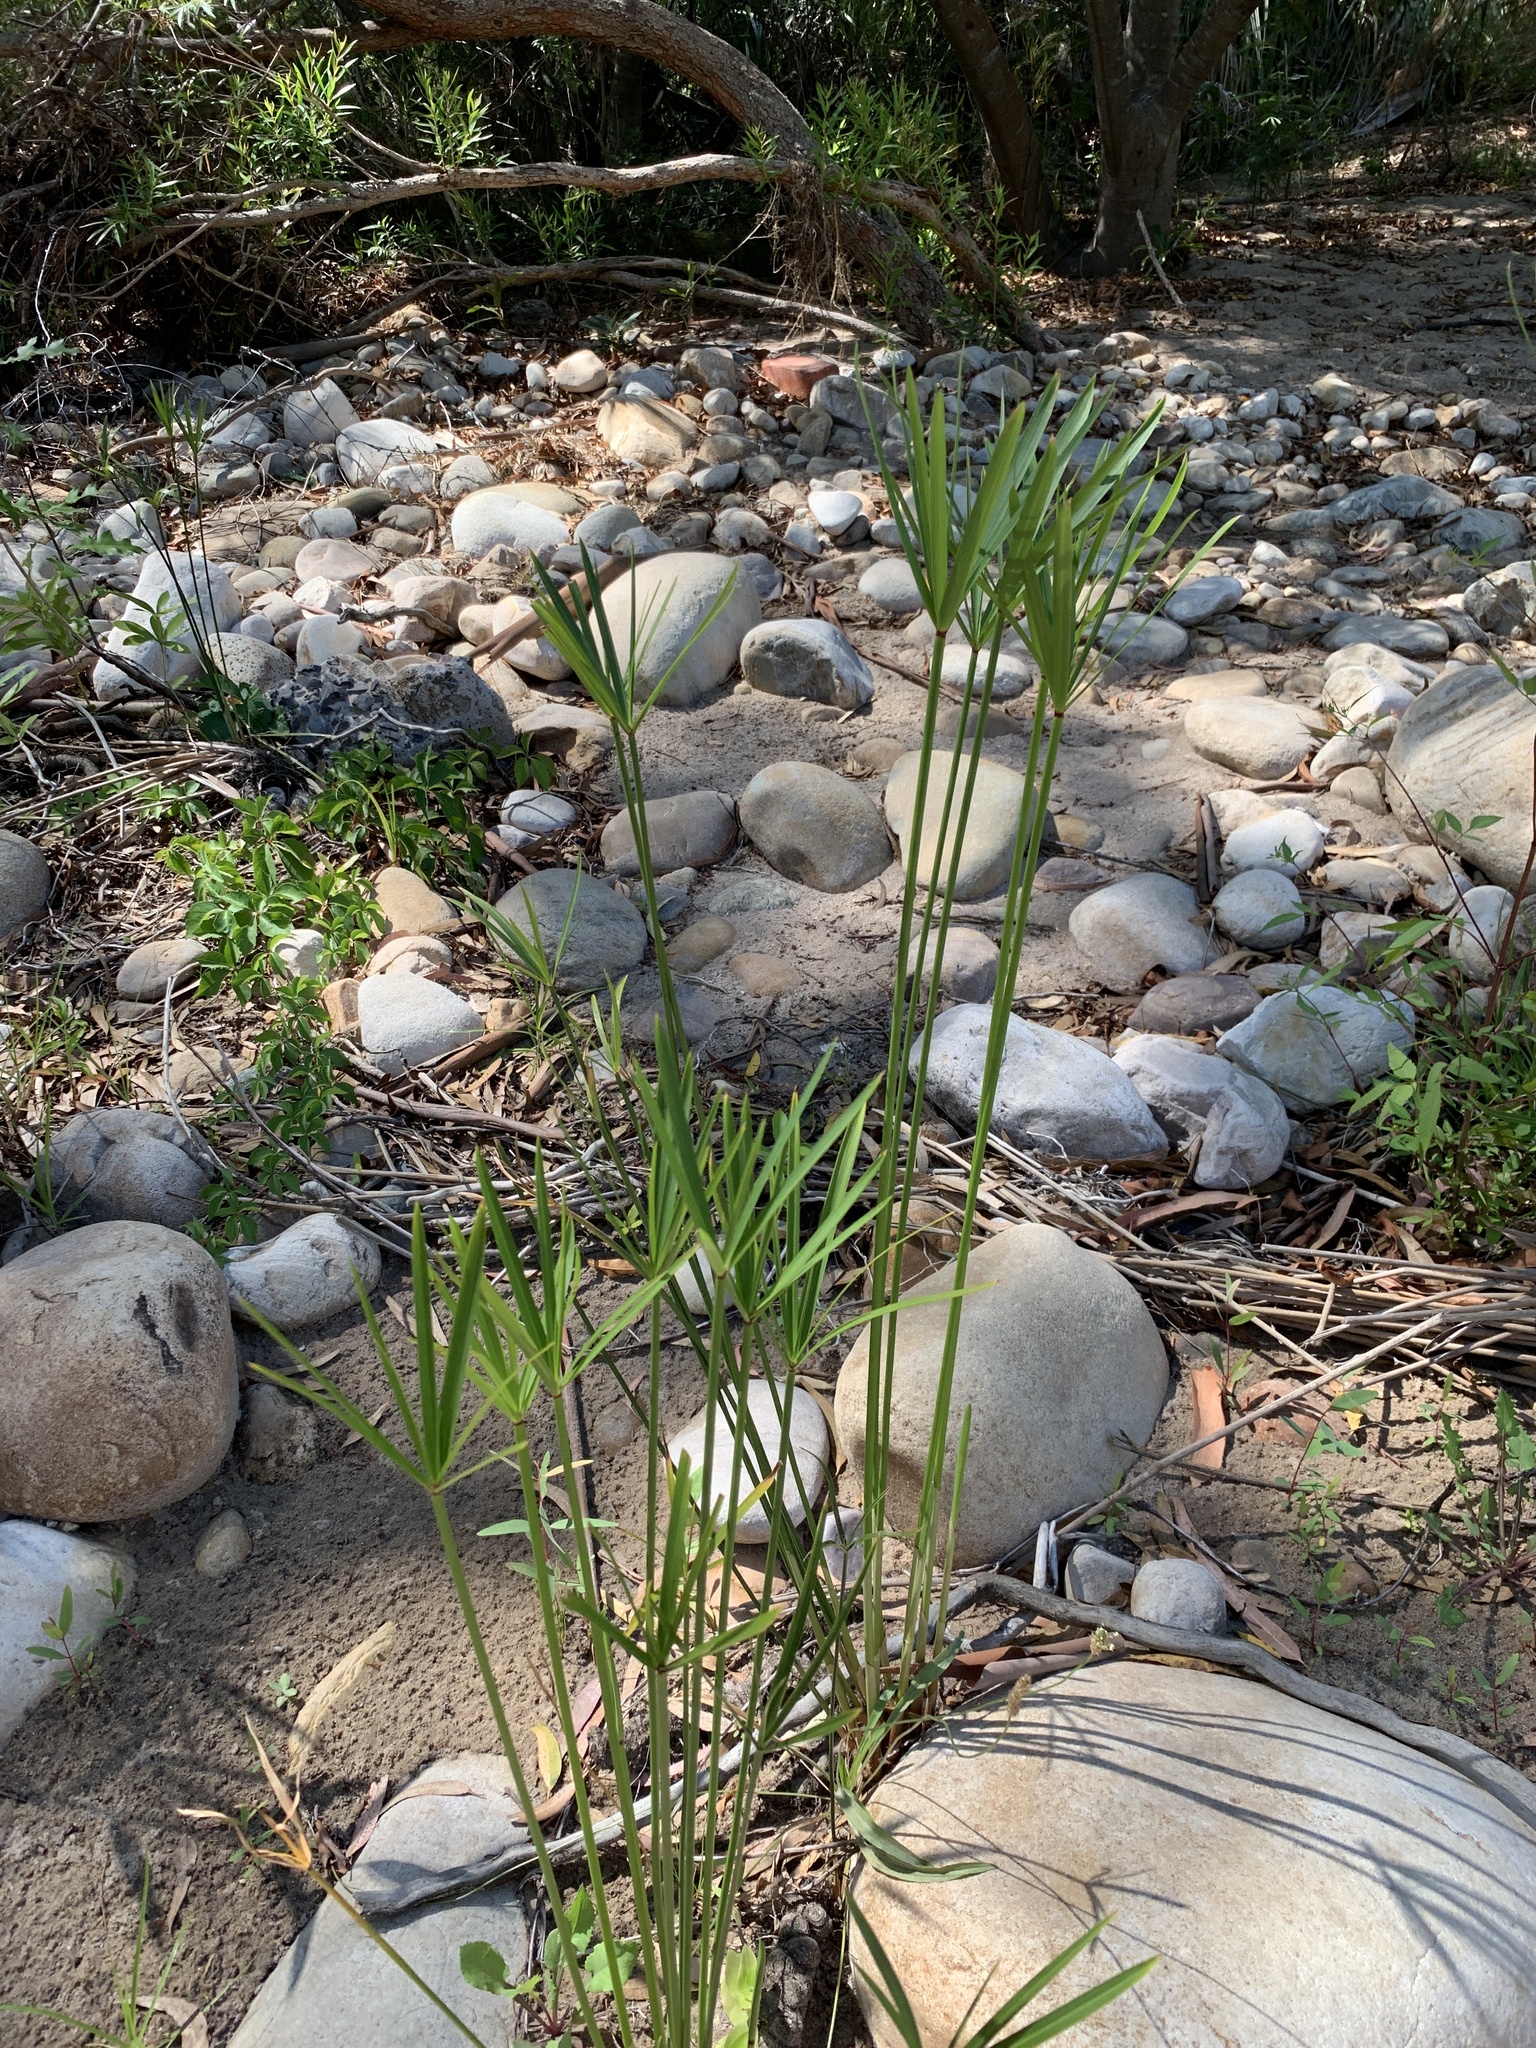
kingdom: Plantae
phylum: Tracheophyta
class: Liliopsida
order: Poales
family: Cyperaceae
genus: Cyperus
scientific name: Cyperus textilis
